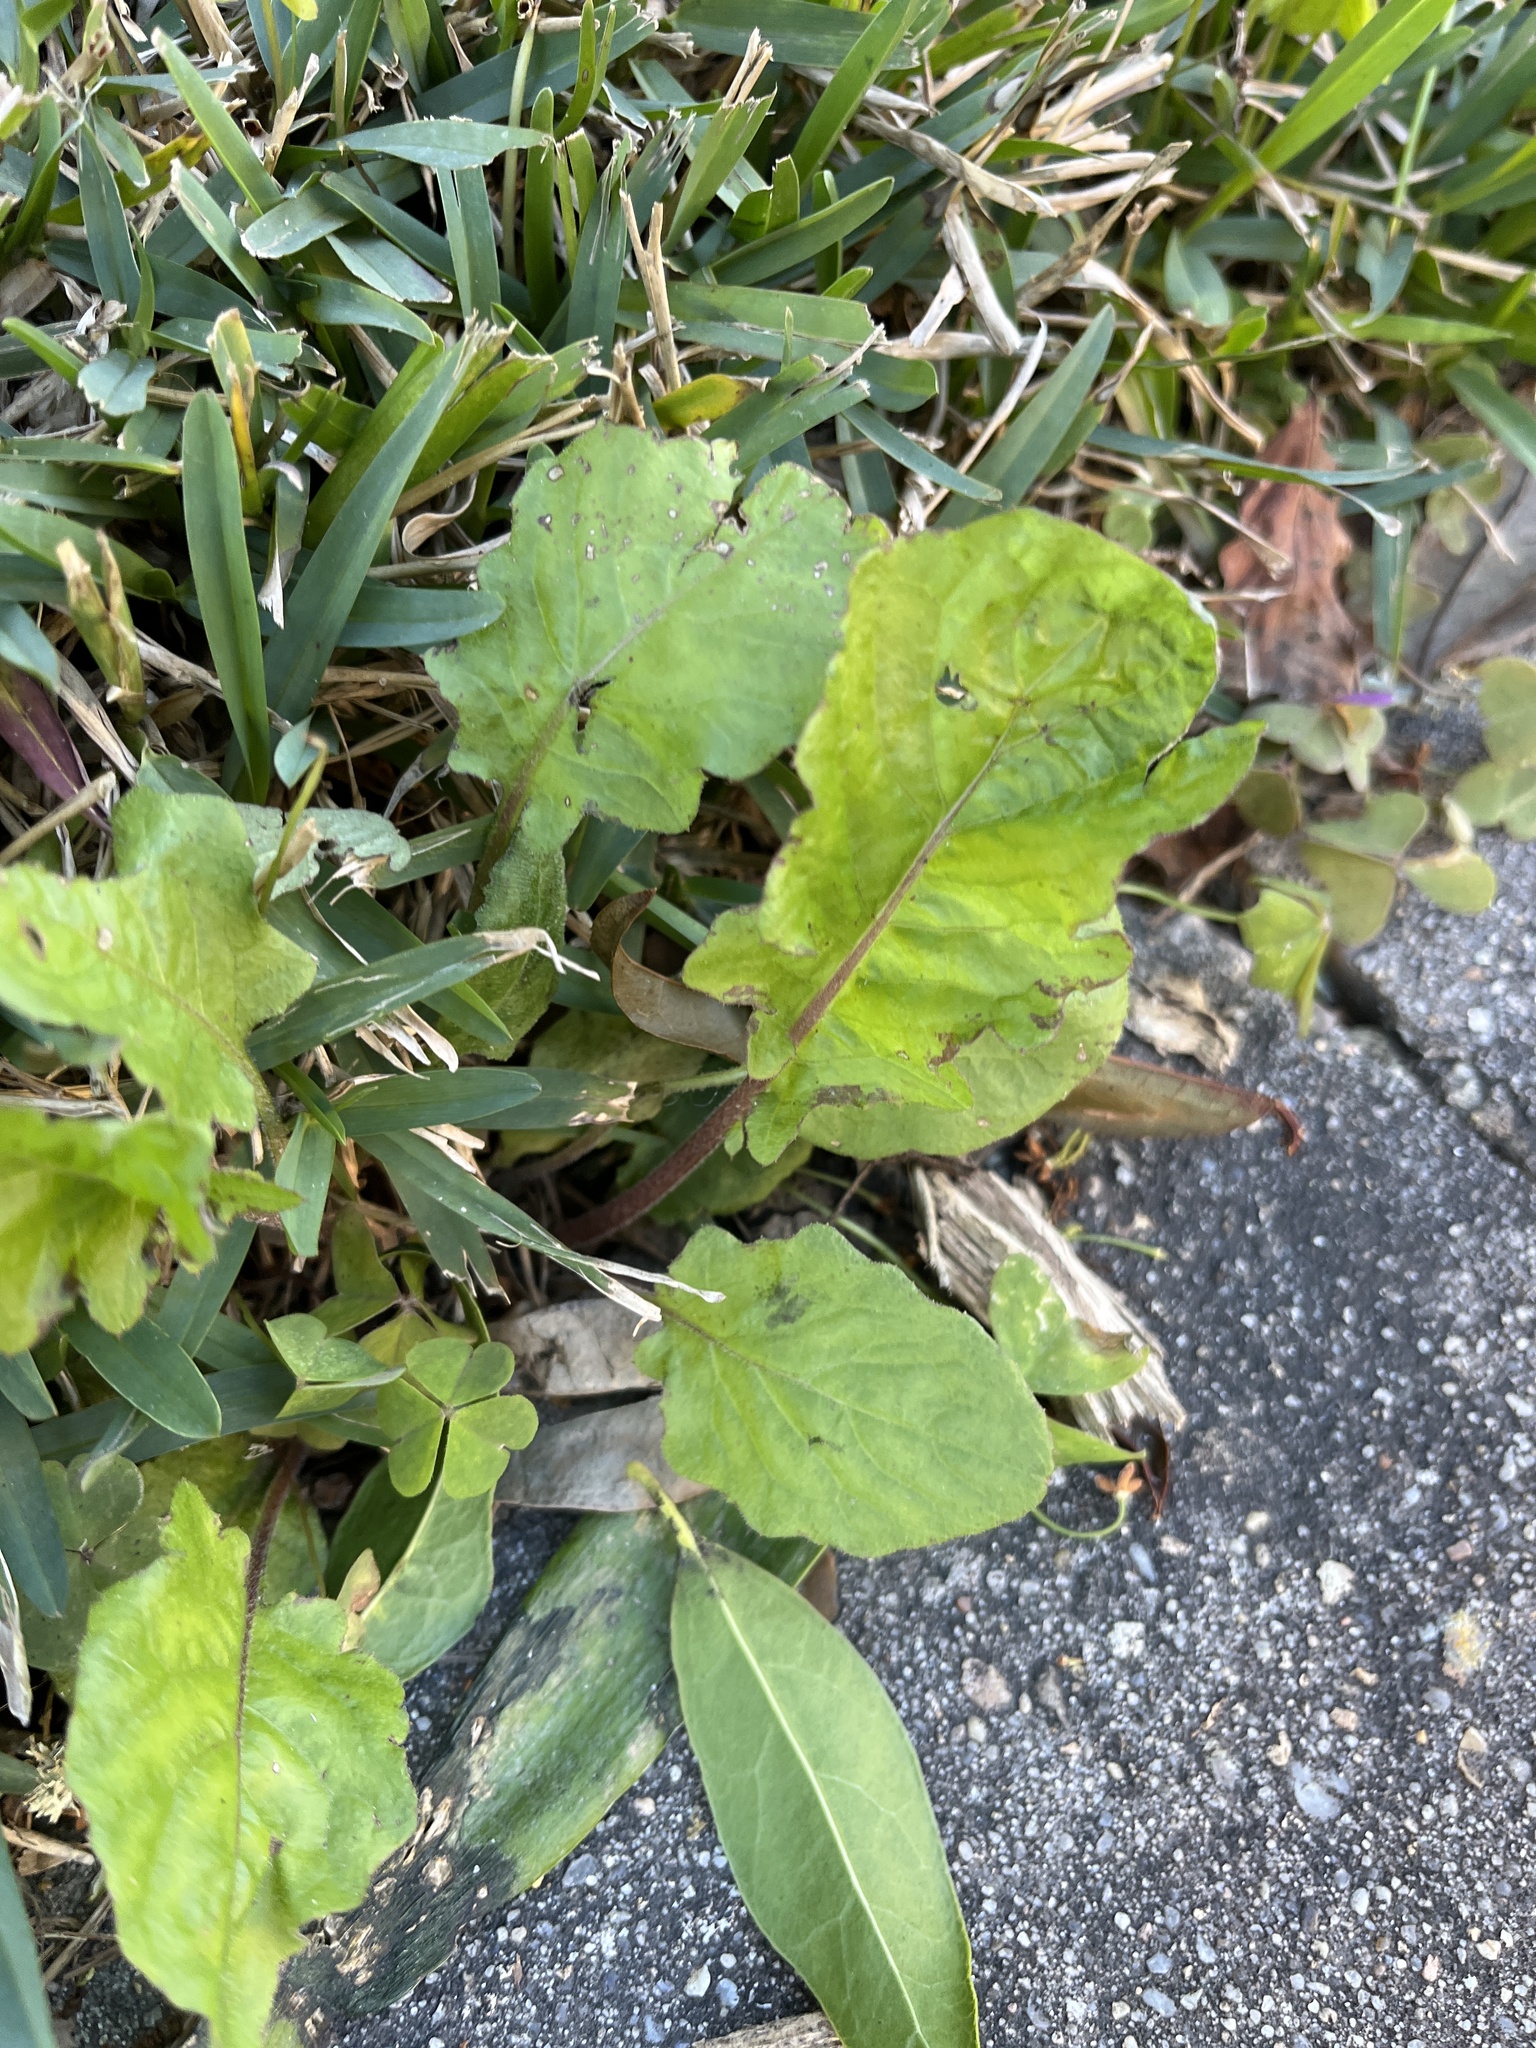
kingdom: Plantae
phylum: Tracheophyta
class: Magnoliopsida
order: Asterales
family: Asteraceae
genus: Youngia
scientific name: Youngia japonica
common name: Oriental false hawksbeard
